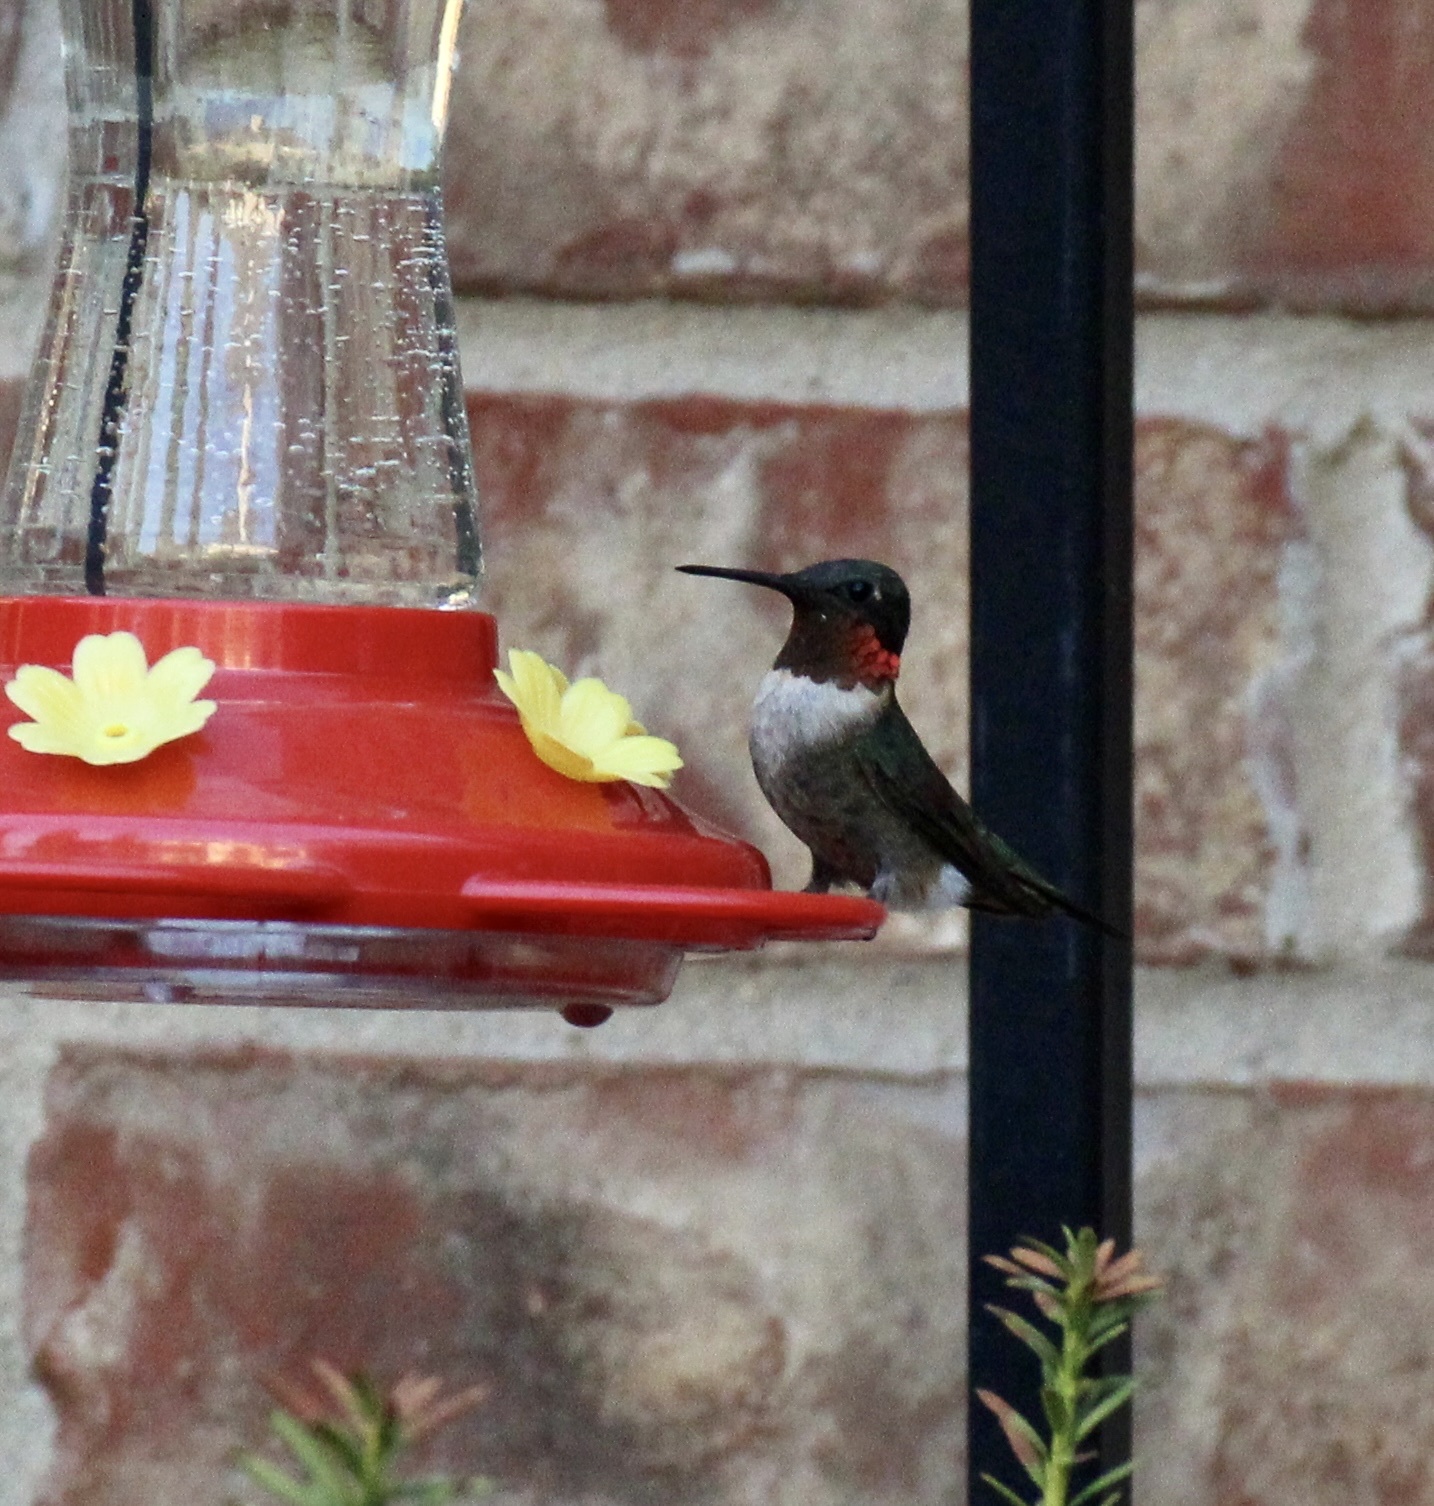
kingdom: Animalia
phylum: Chordata
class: Aves
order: Apodiformes
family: Trochilidae
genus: Archilochus
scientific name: Archilochus colubris
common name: Ruby-throated hummingbird
